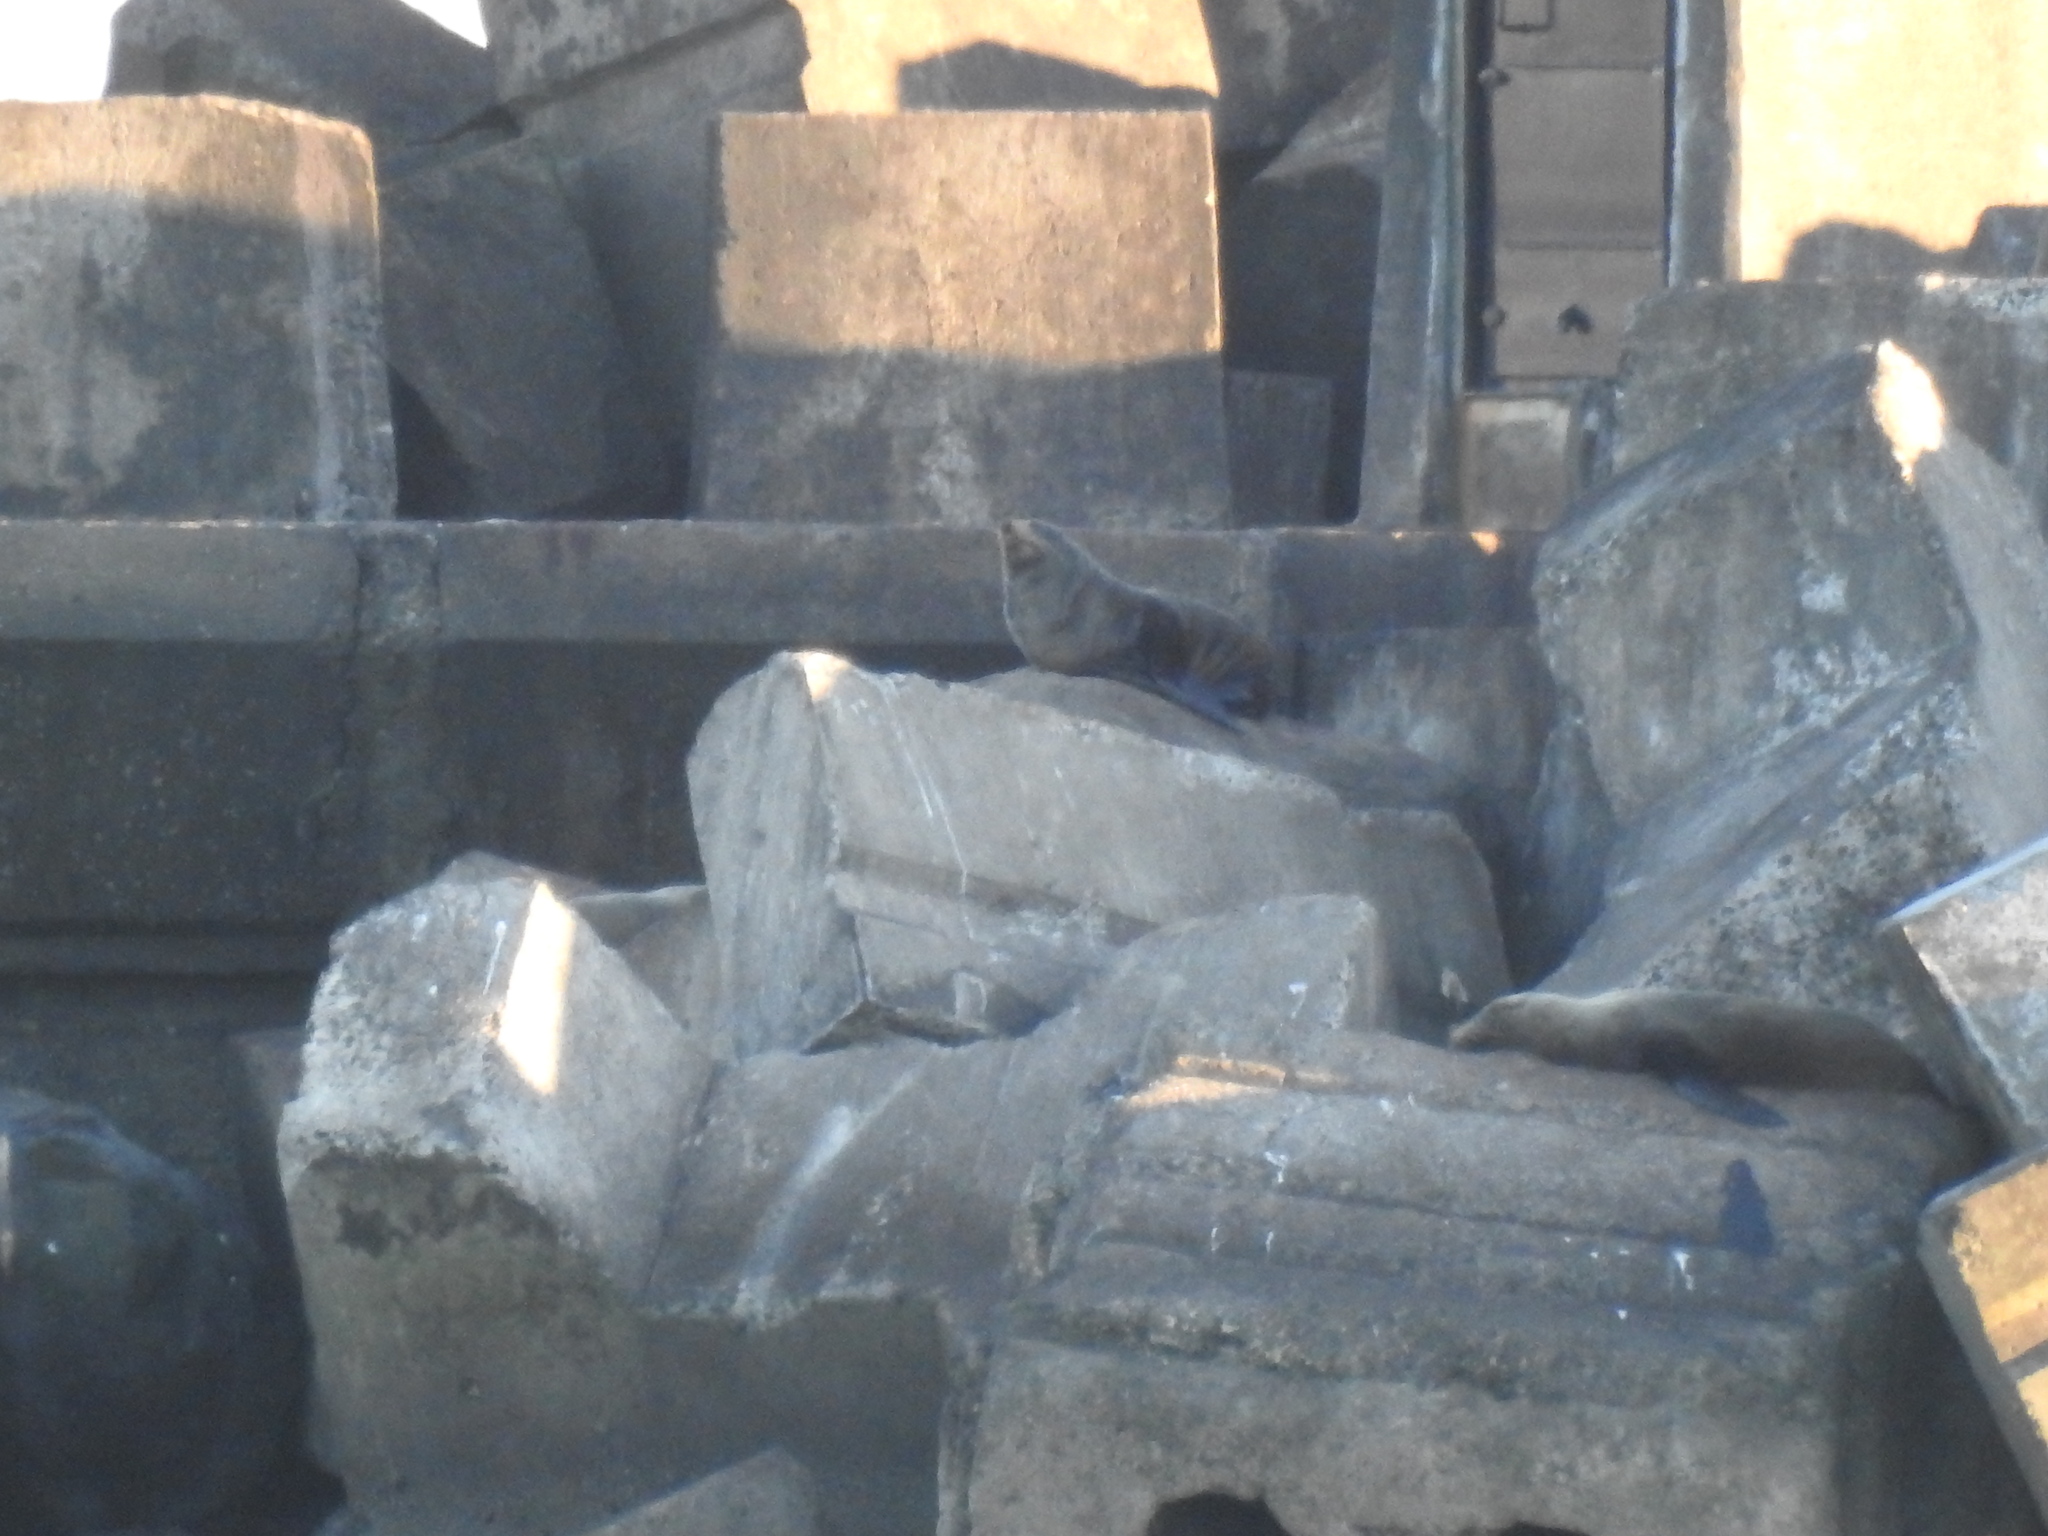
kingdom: Animalia
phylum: Chordata
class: Mammalia
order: Carnivora
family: Otariidae
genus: Arctocephalus
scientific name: Arctocephalus forsteri
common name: New zealand fur seal
